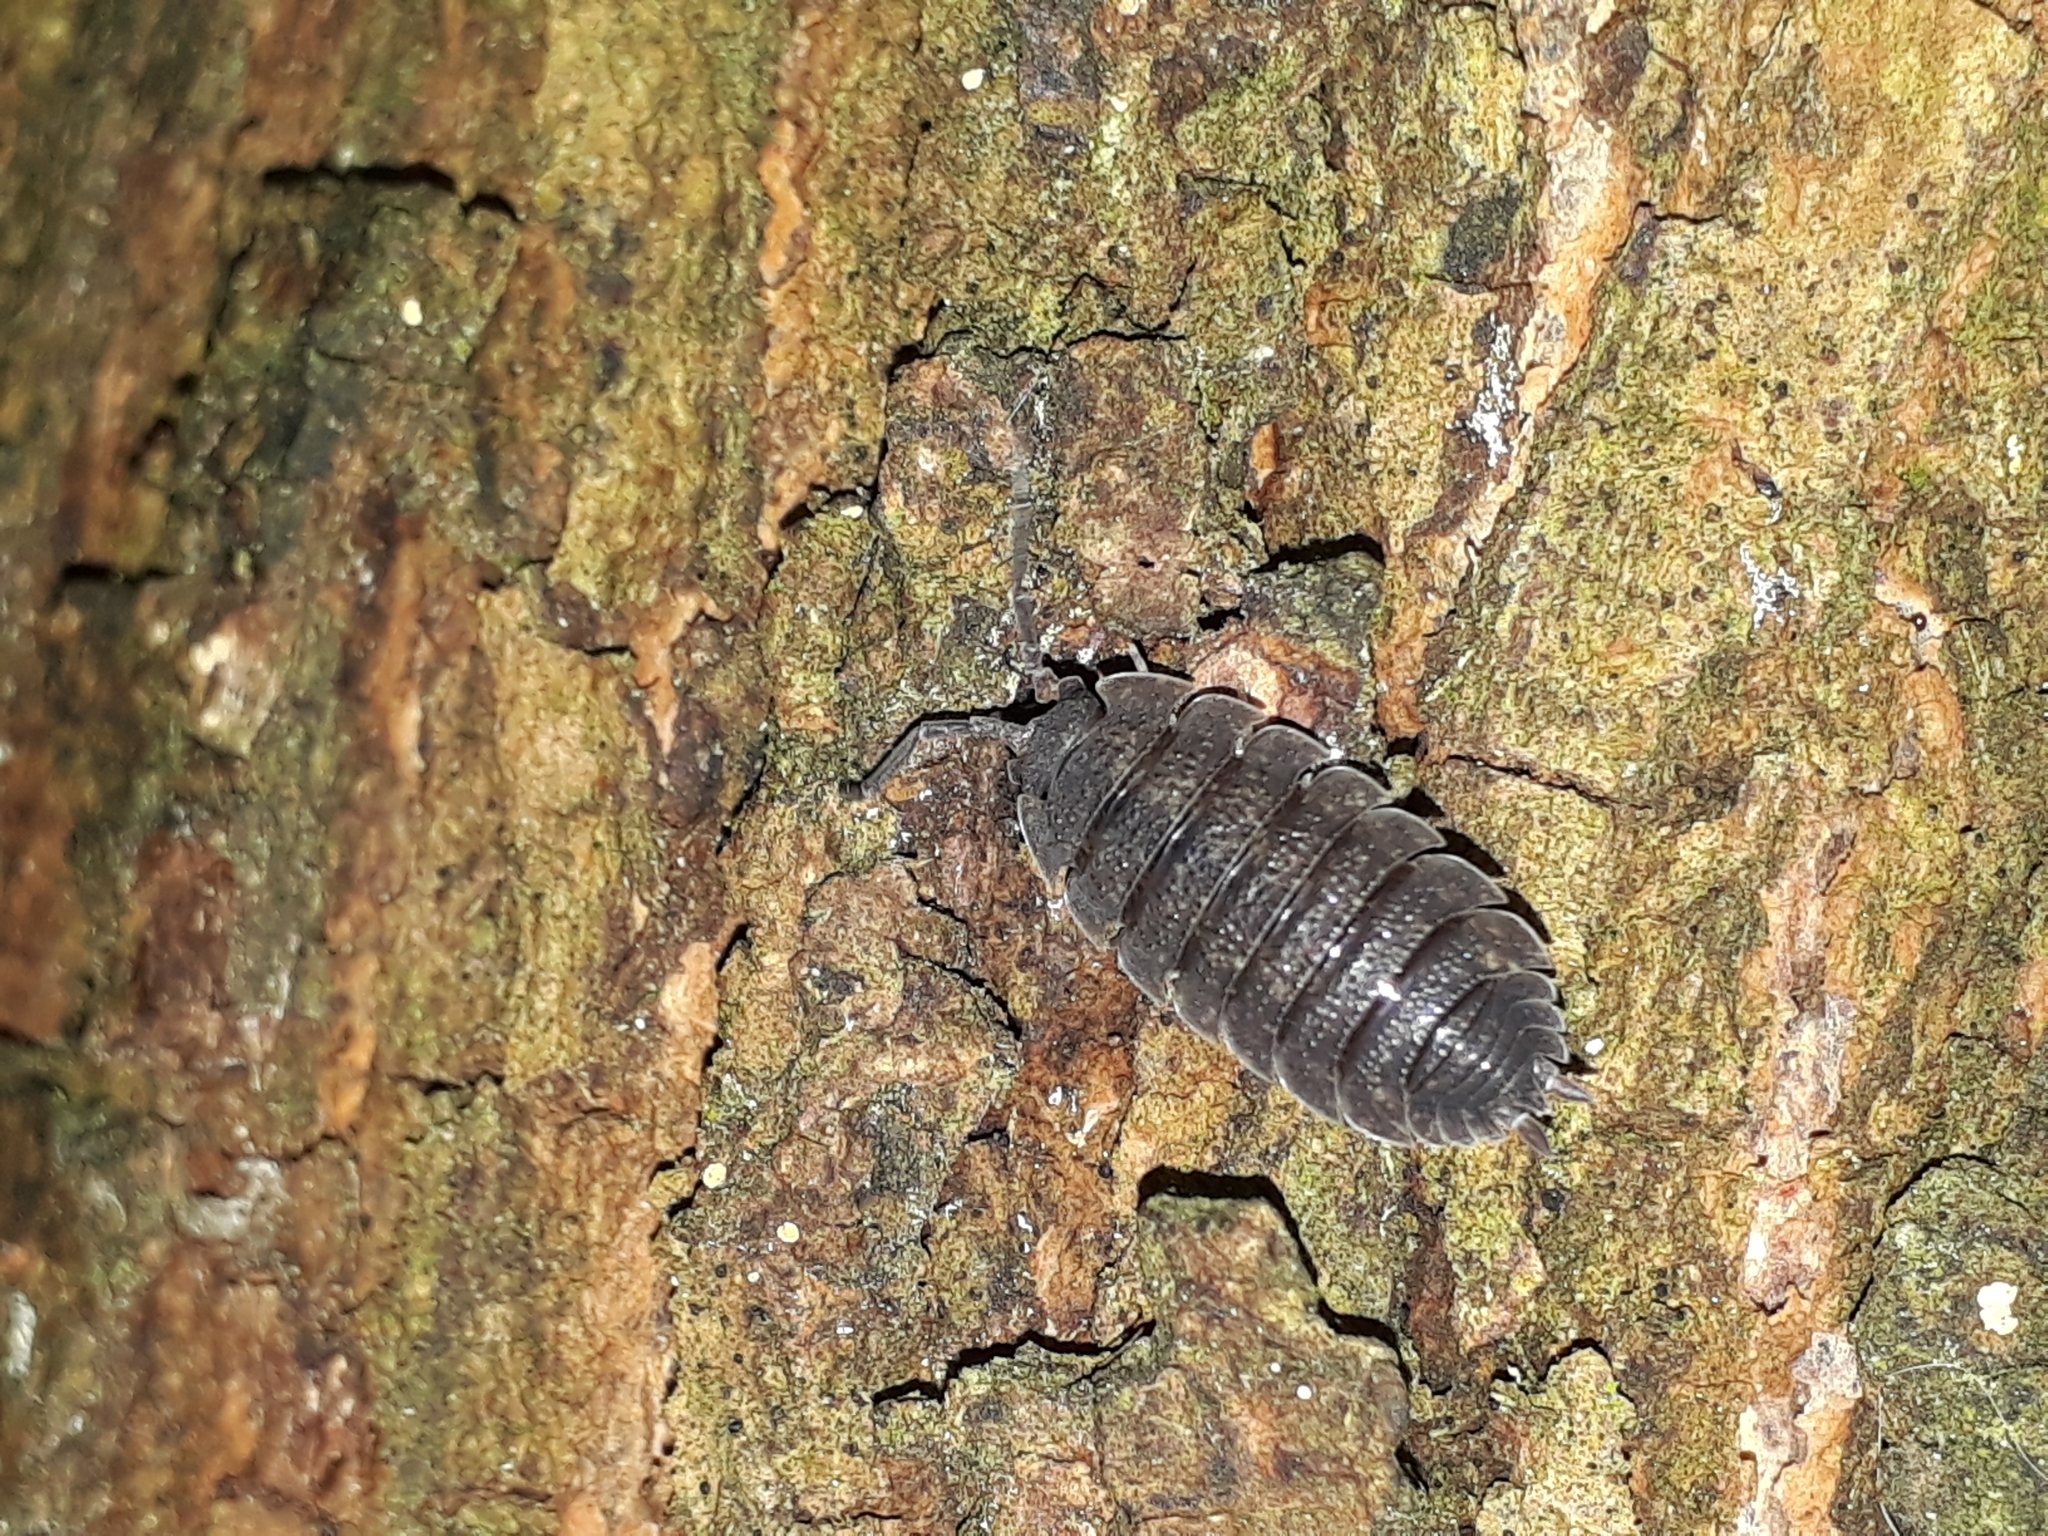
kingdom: Animalia
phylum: Arthropoda
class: Malacostraca
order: Isopoda
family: Porcellionidae
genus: Porcellio
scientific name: Porcellio scaber
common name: Common rough woodlouse
